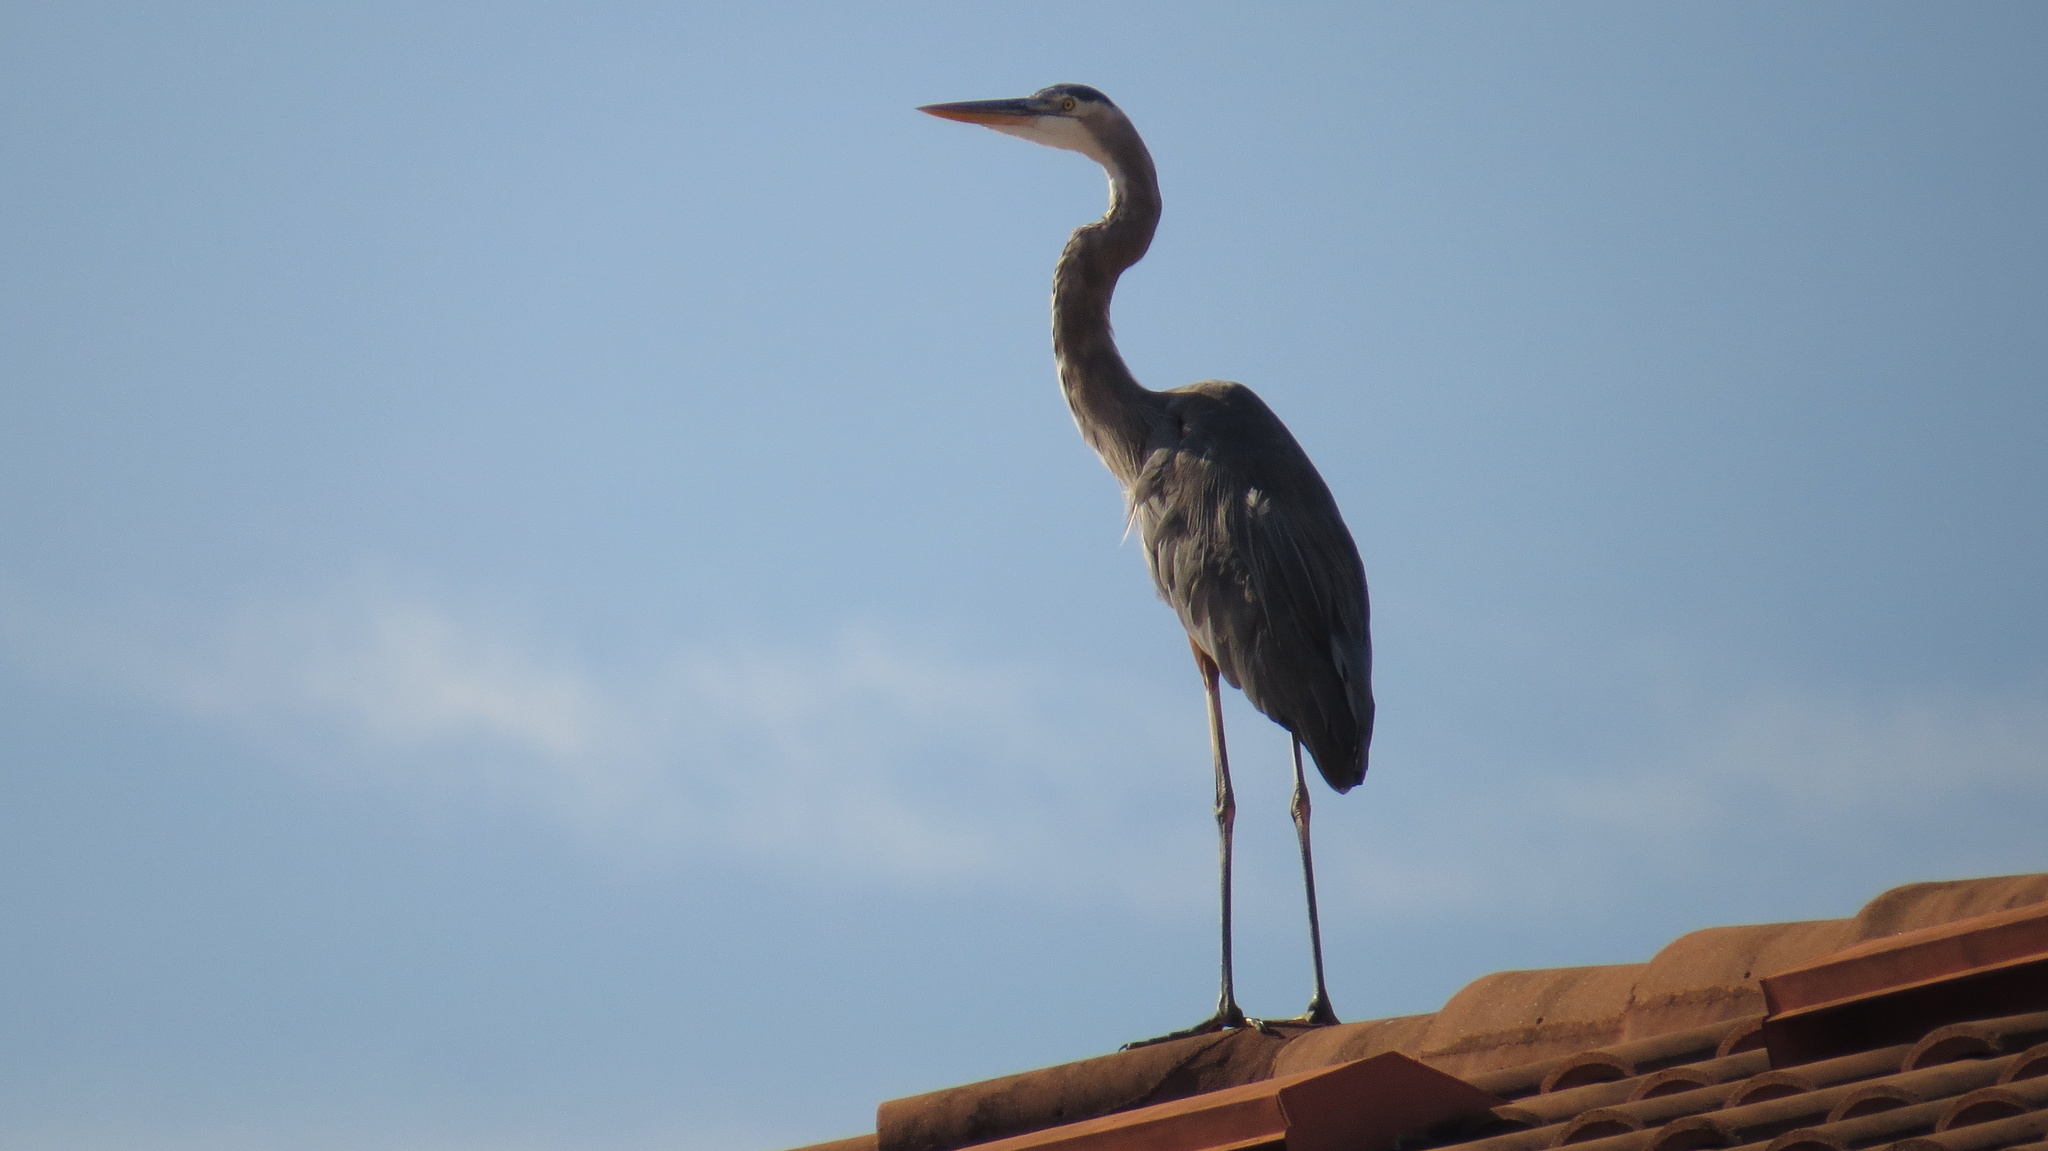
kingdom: Animalia
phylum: Chordata
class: Aves
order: Pelecaniformes
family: Ardeidae
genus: Ardea
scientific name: Ardea herodias
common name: Great blue heron
